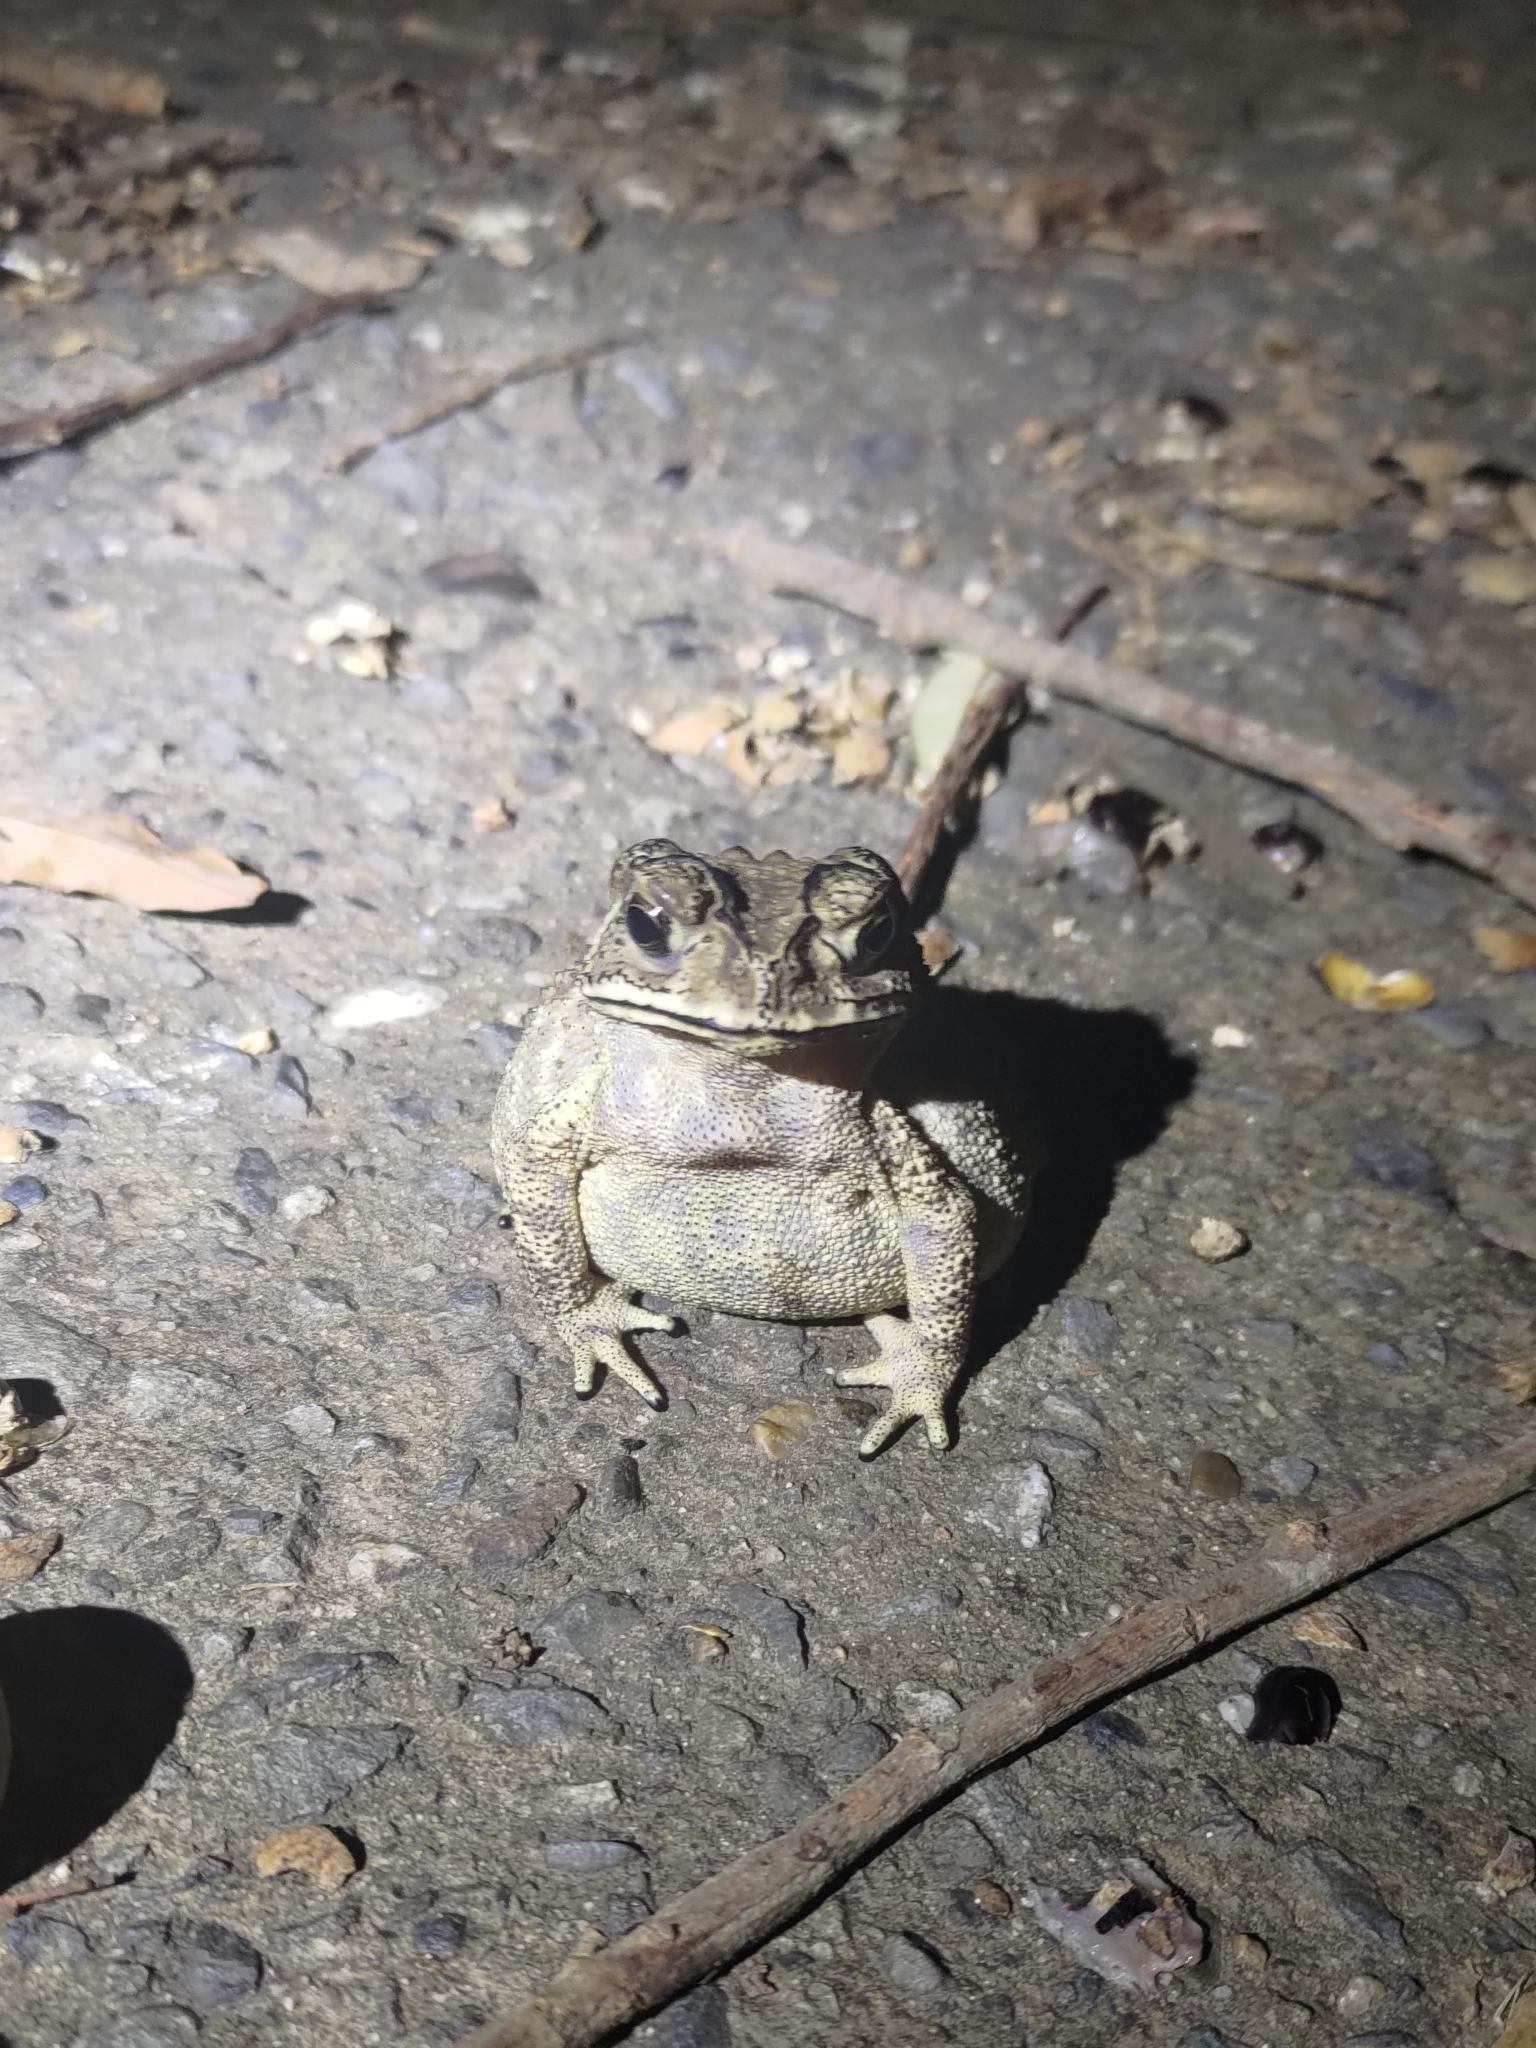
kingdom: Animalia
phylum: Chordata
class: Amphibia
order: Anura
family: Bufonidae
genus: Duttaphrynus
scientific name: Duttaphrynus melanostictus
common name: Common sunda toad
